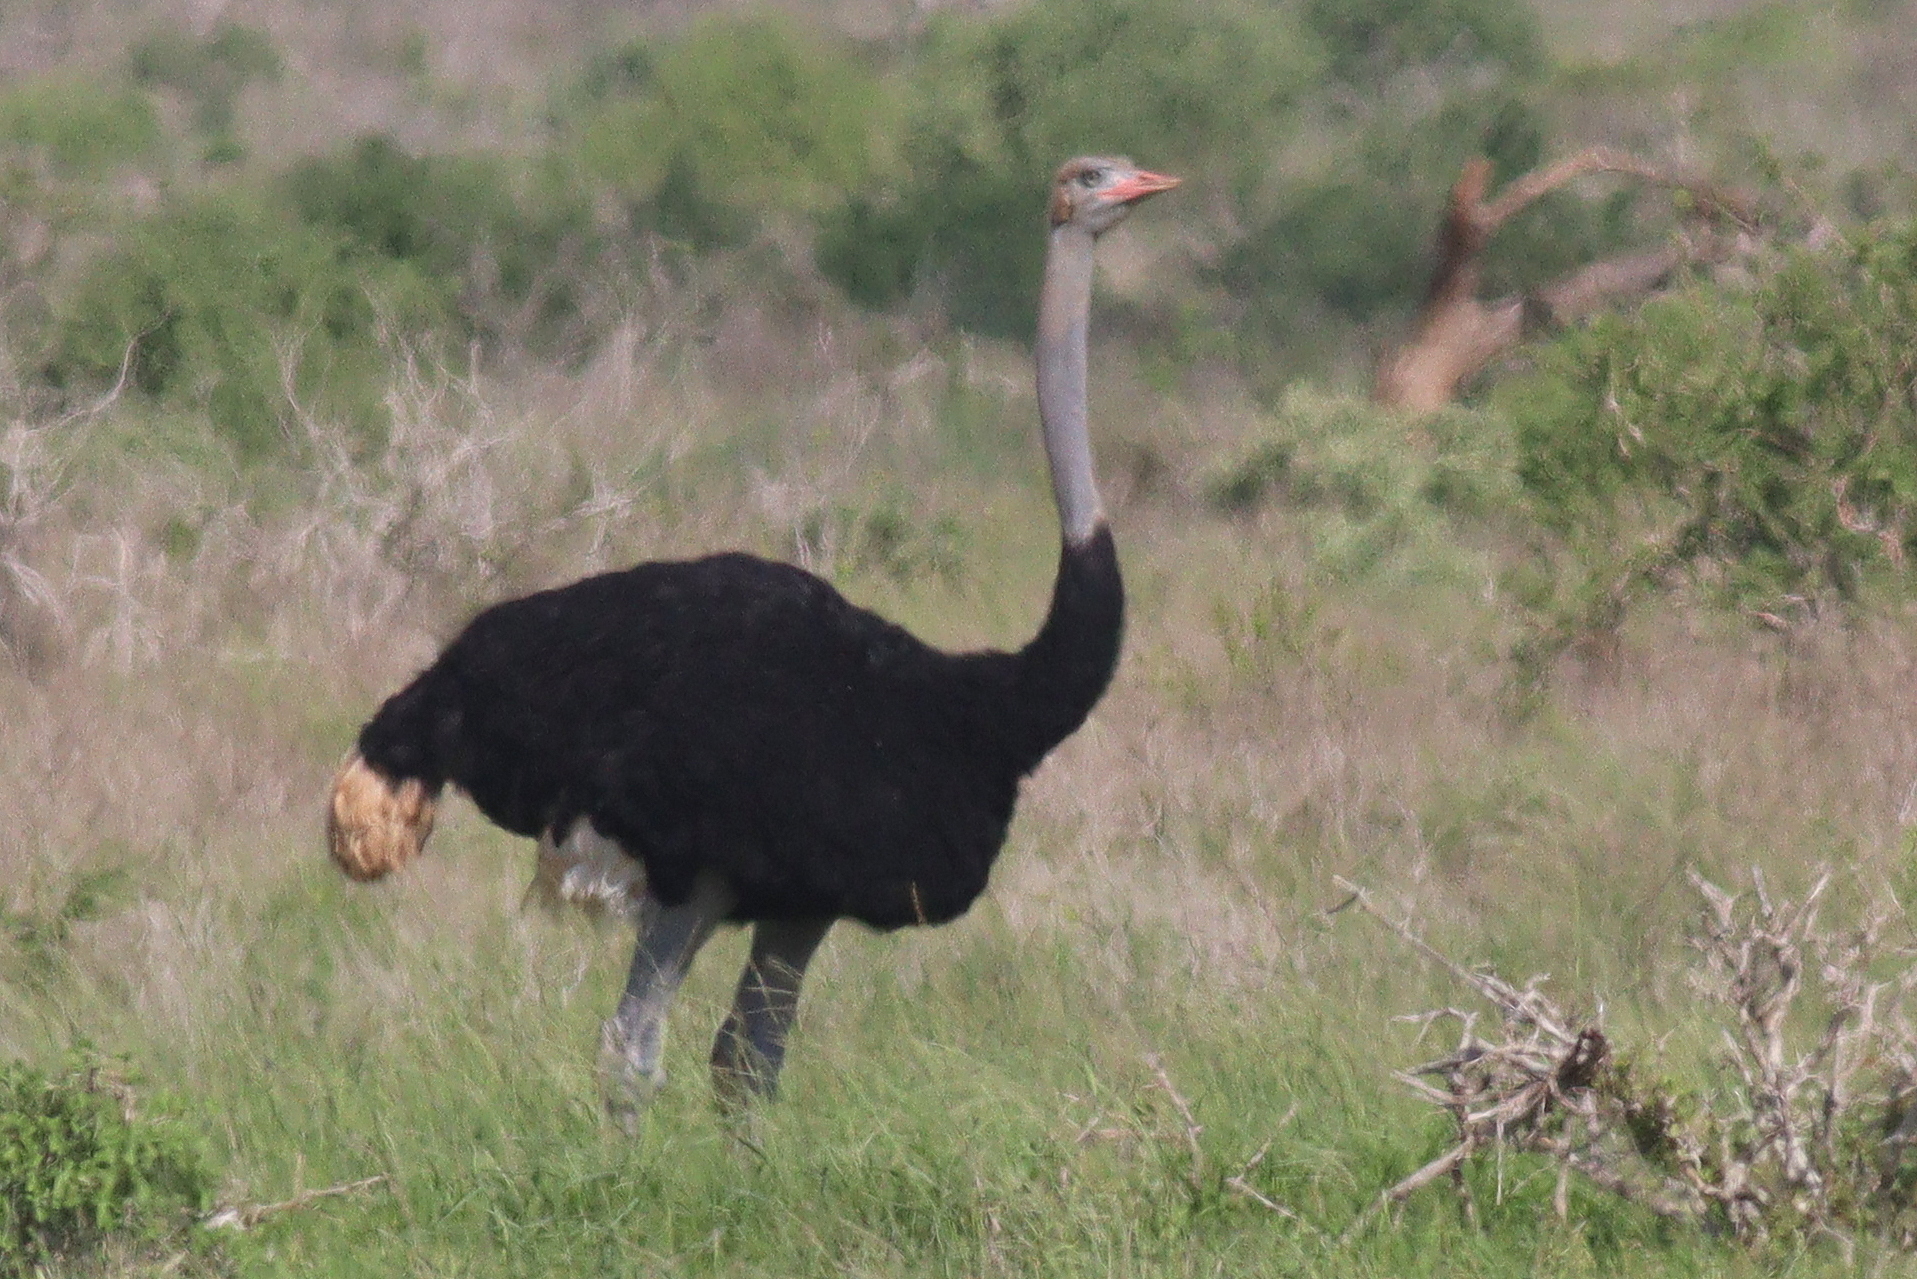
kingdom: Animalia
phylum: Chordata
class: Aves
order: Struthioniformes
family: Struthionidae
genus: Struthio
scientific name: Struthio molybdophanes
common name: Somali ostrich
